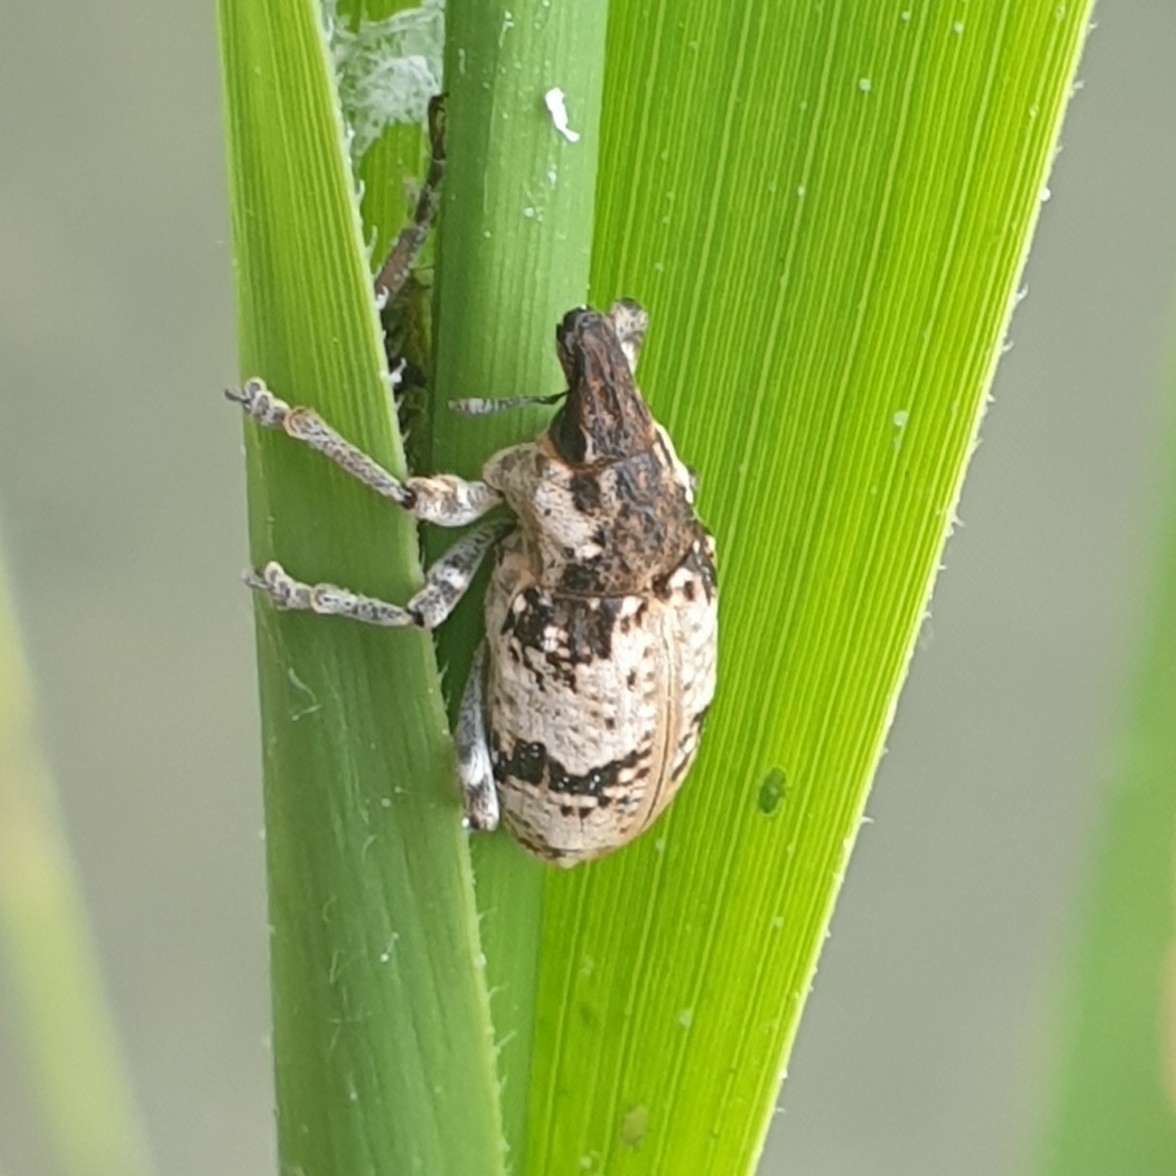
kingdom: Animalia
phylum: Arthropoda
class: Insecta
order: Coleoptera
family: Curculionidae
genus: Bothynoderes
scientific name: Bothynoderes affinis
